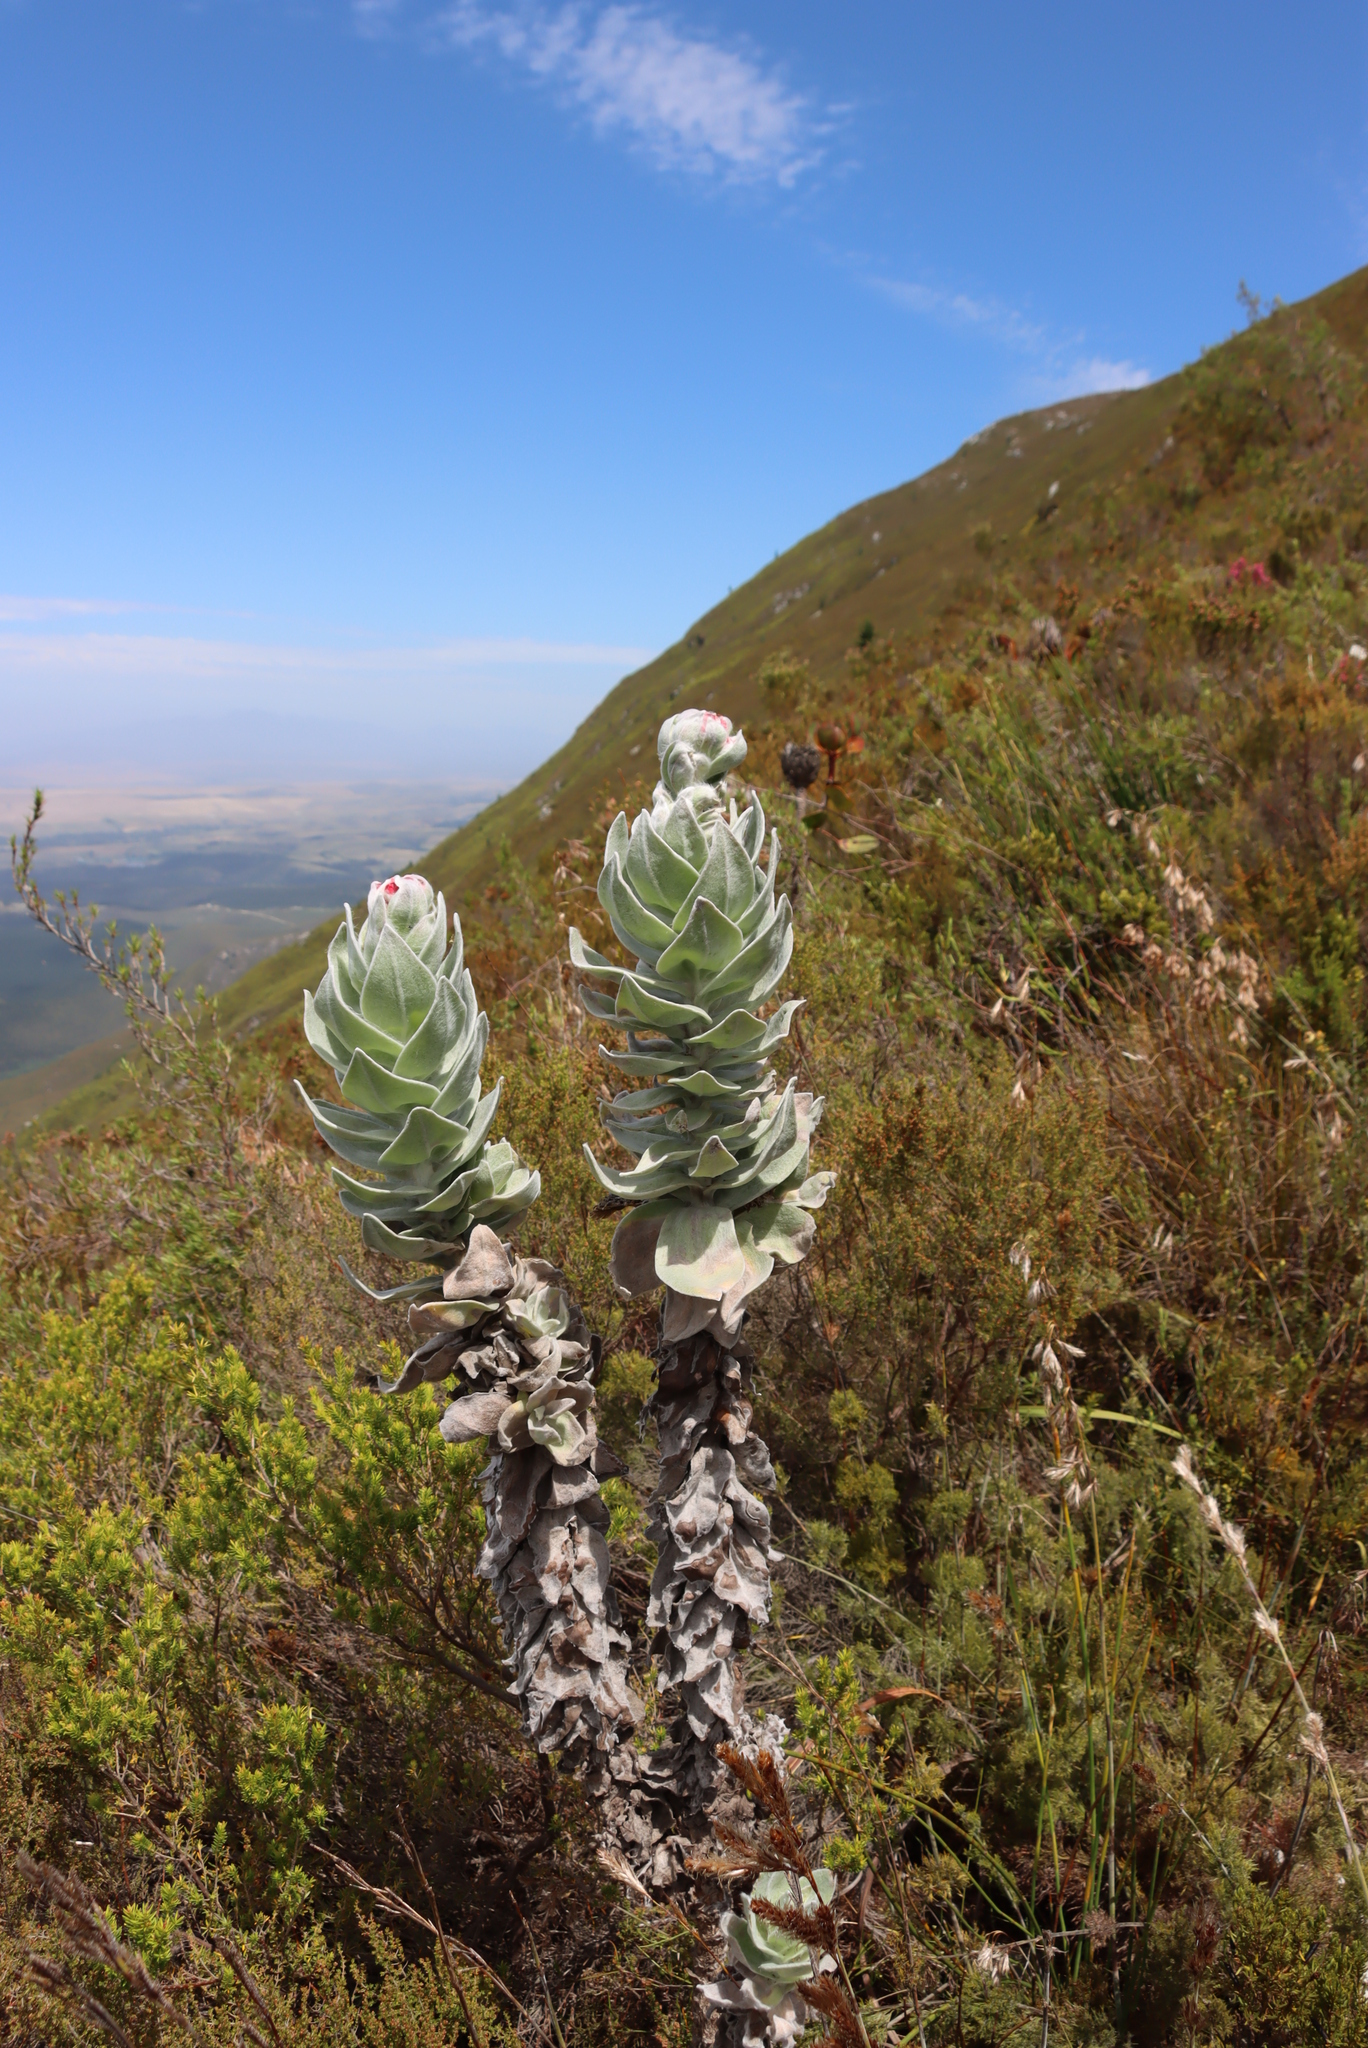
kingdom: Plantae
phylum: Tracheophyta
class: Magnoliopsida
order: Asterales
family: Asteraceae
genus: Syncarpha
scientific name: Syncarpha eximia
